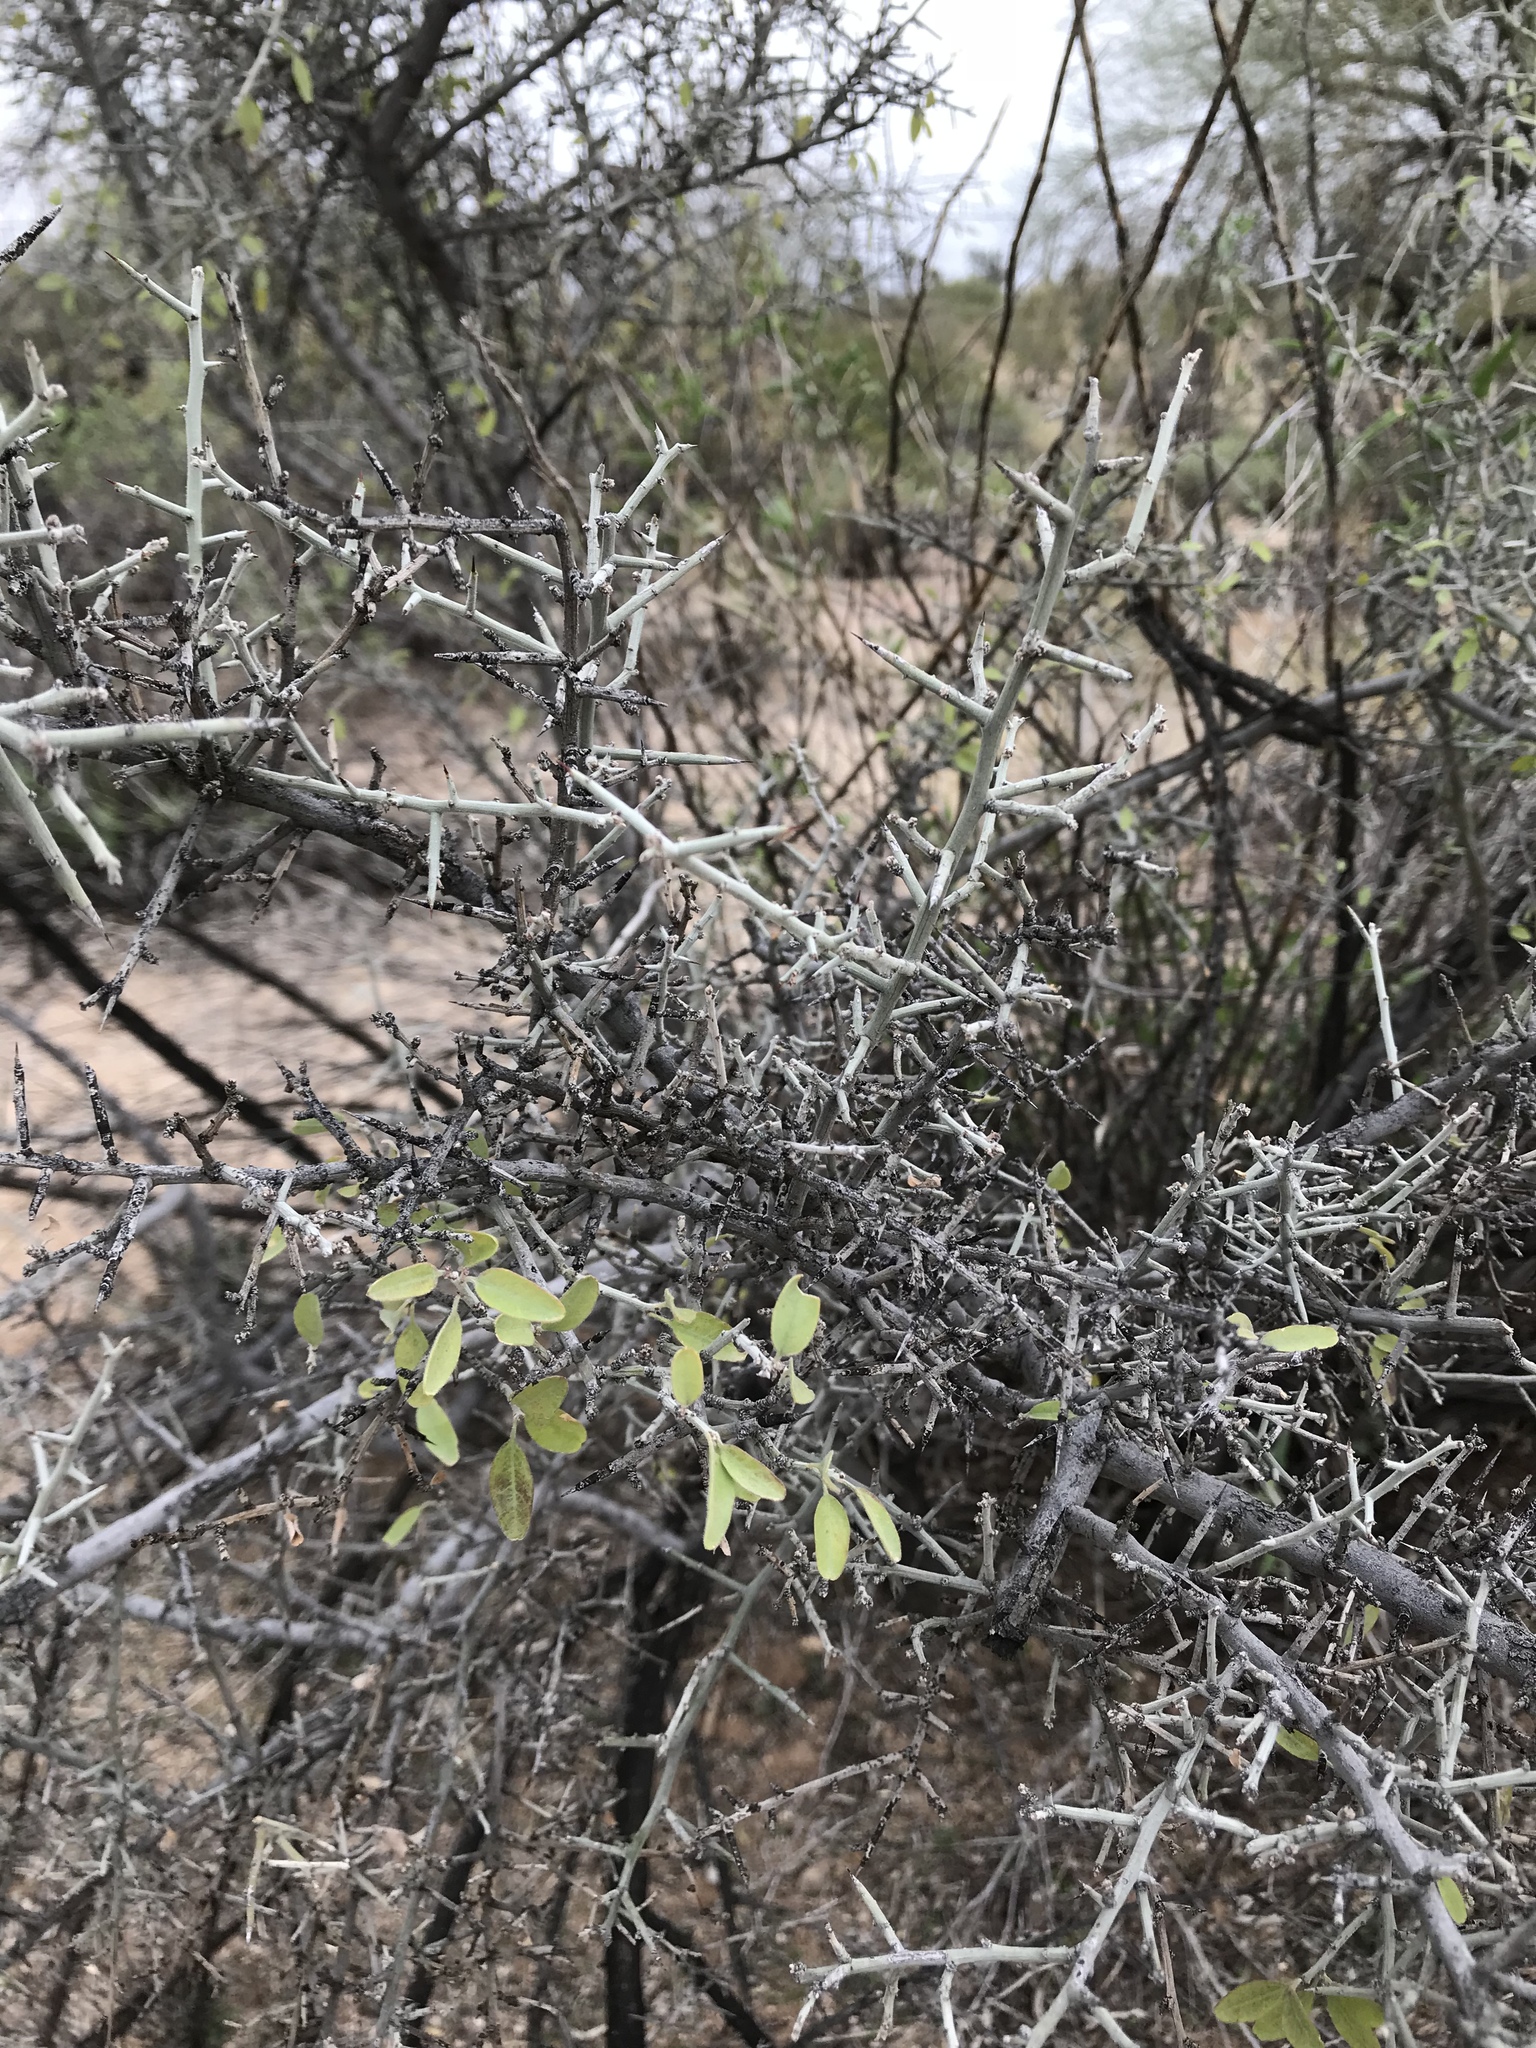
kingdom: Plantae
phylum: Tracheophyta
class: Magnoliopsida
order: Rosales
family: Rhamnaceae
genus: Sarcomphalus
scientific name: Sarcomphalus obtusifolius
